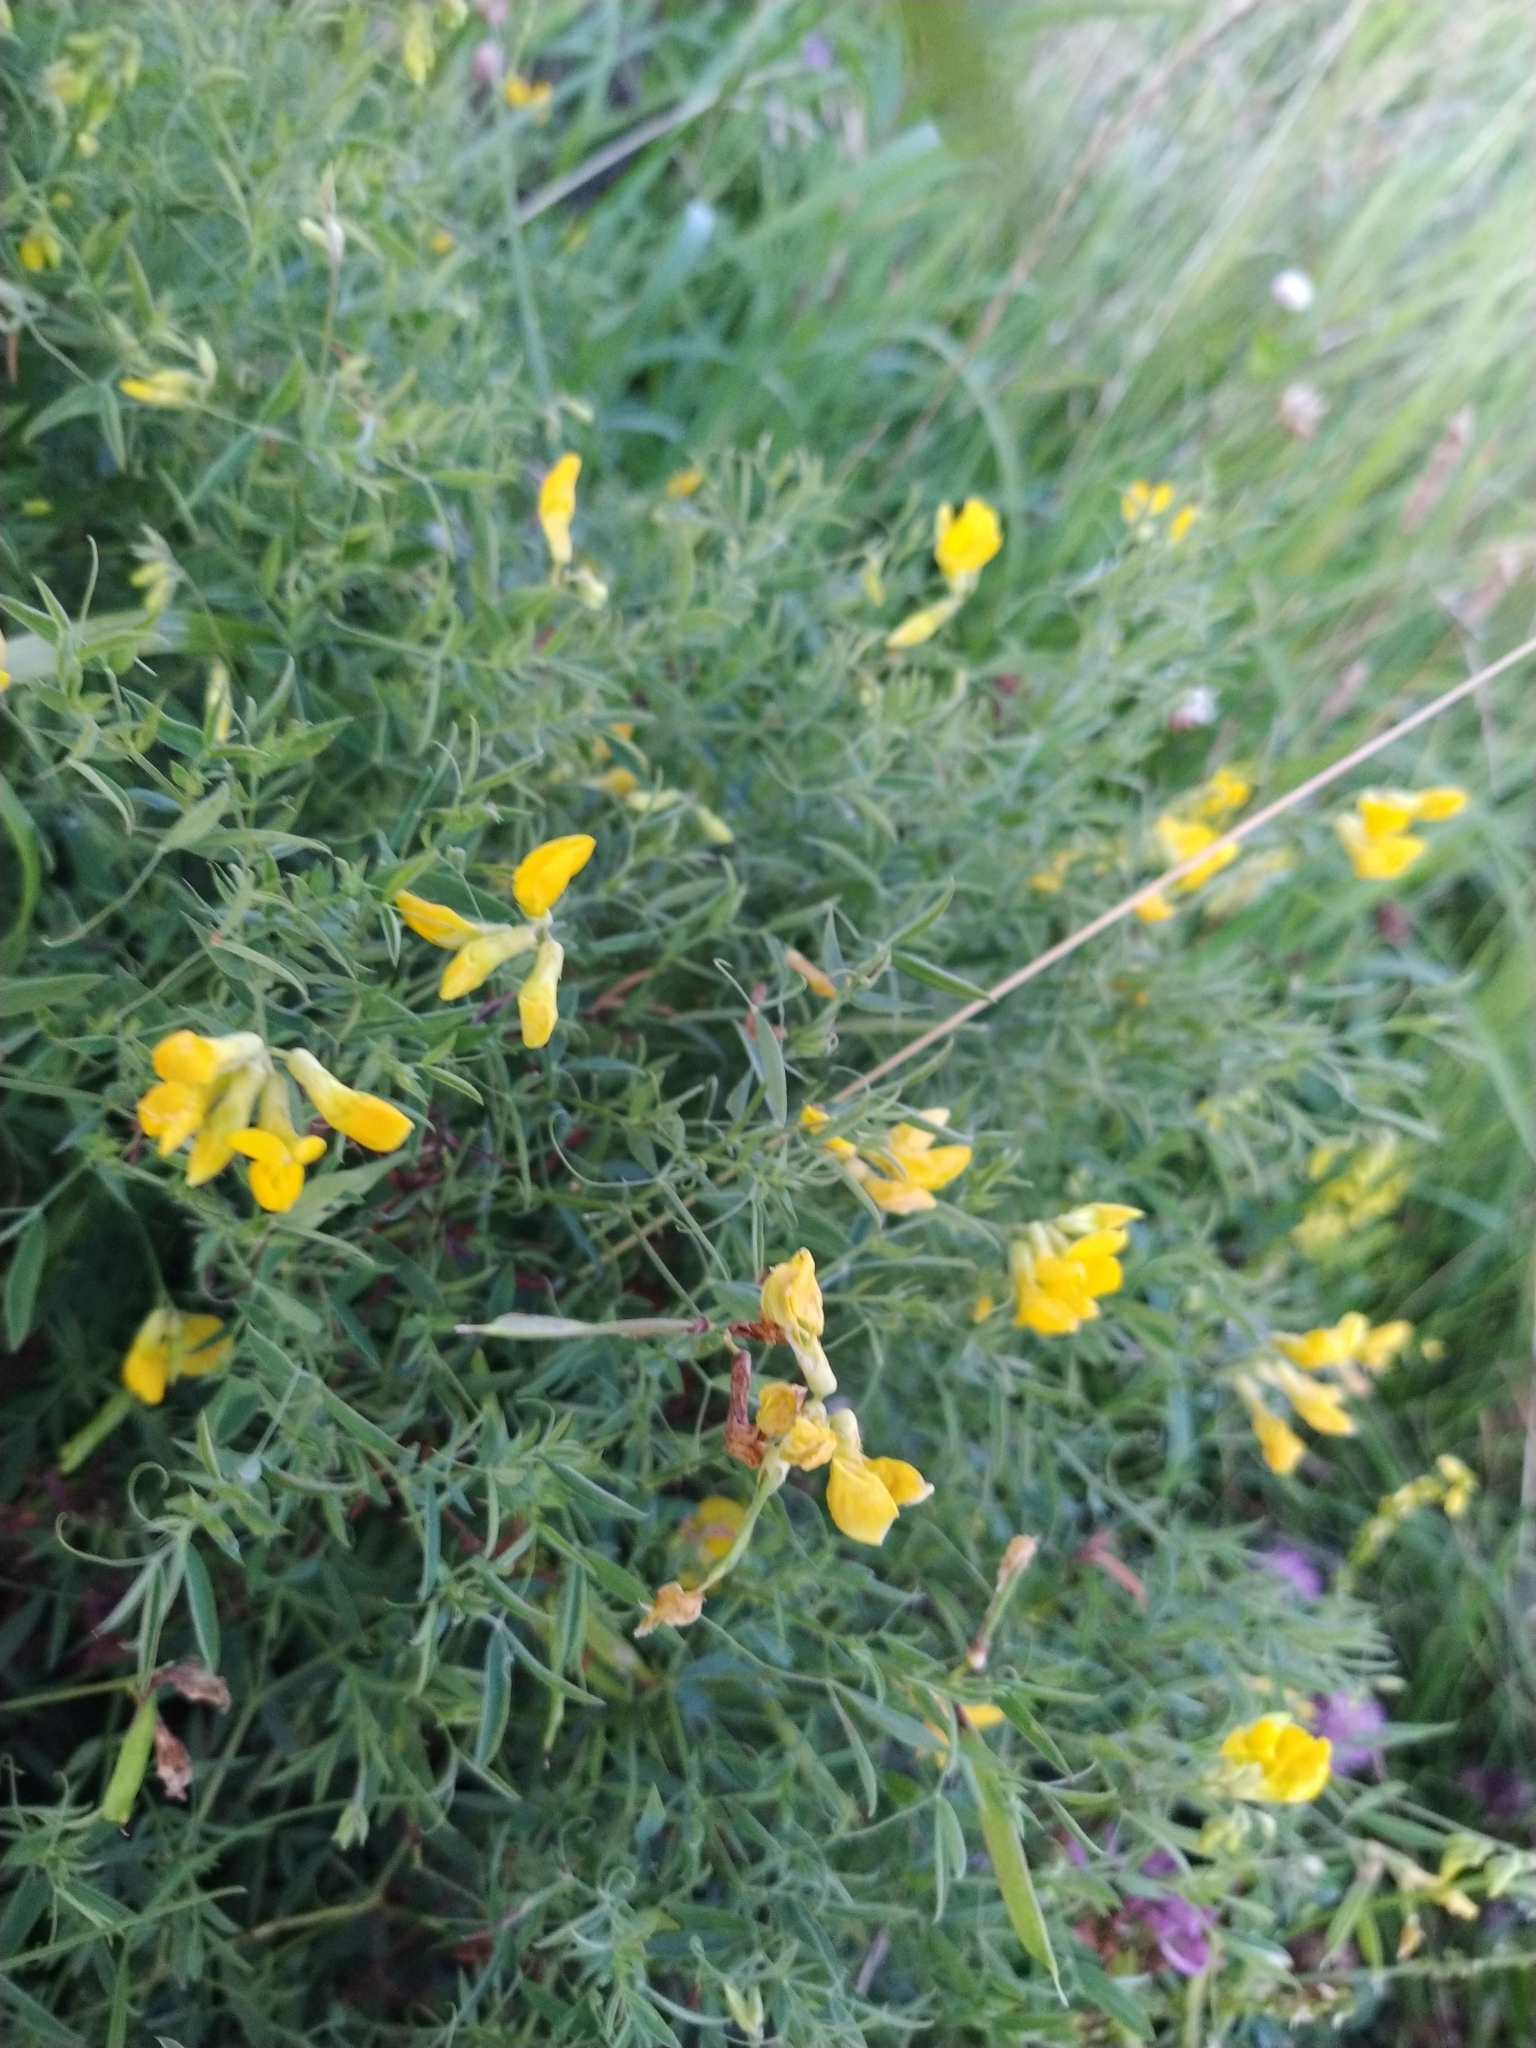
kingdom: Plantae
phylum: Tracheophyta
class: Magnoliopsida
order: Fabales
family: Fabaceae
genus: Lathyrus
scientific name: Lathyrus pratensis
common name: Meadow vetchling
